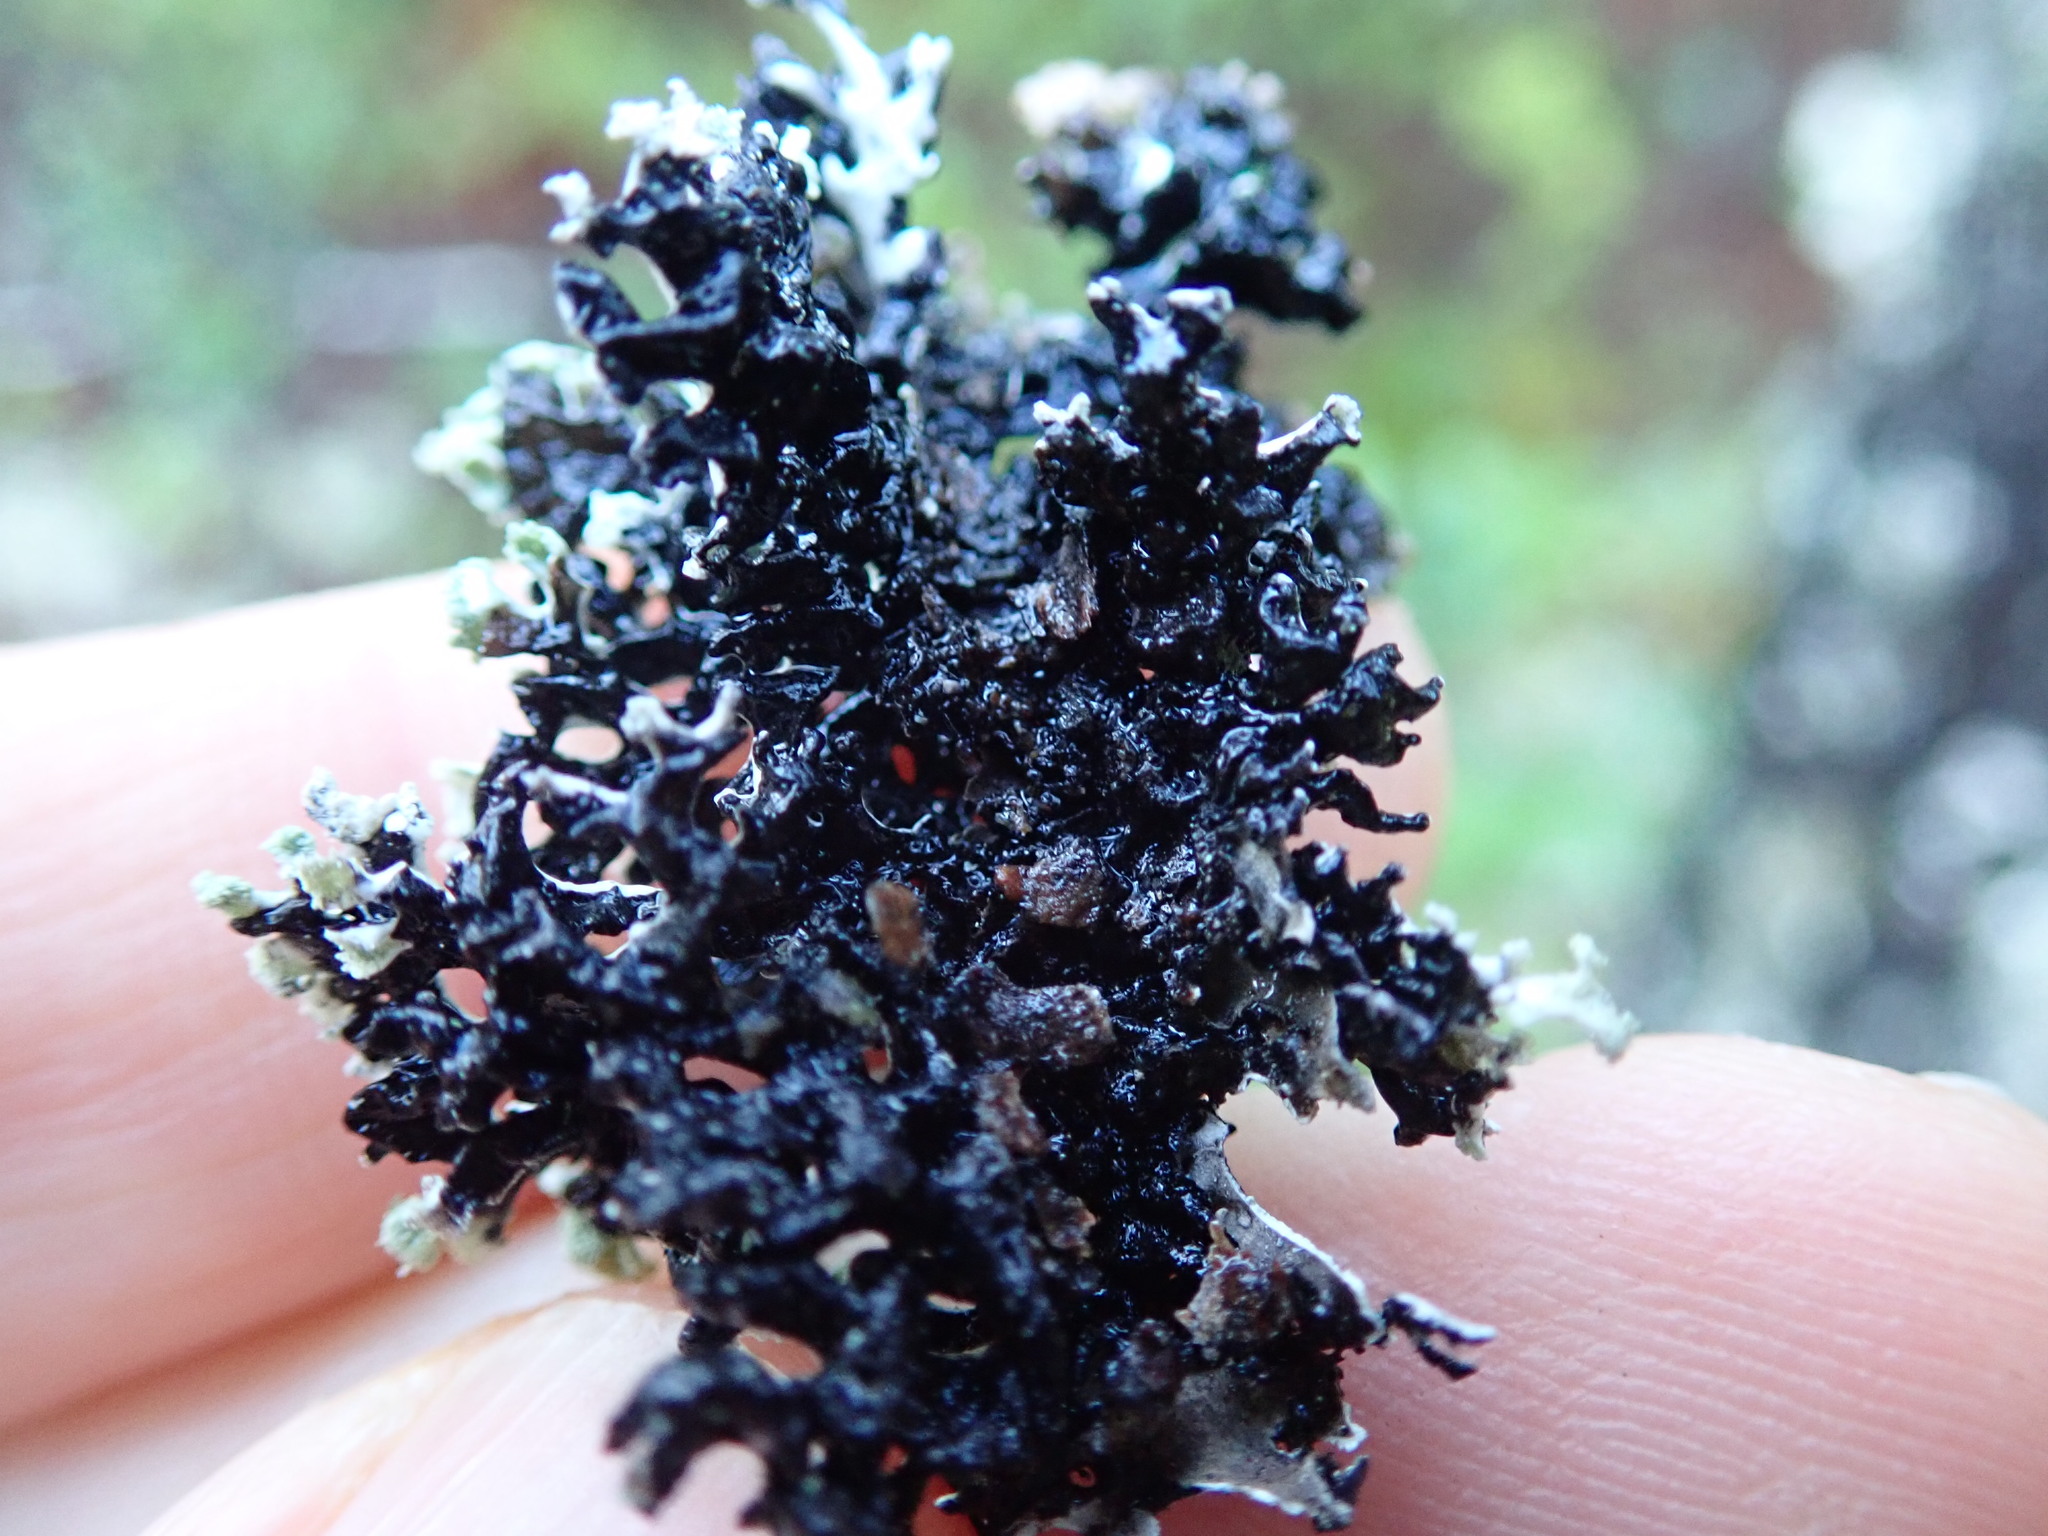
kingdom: Fungi
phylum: Ascomycota
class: Lecanoromycetes
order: Lecanorales
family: Parmeliaceae
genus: Hypogymnia
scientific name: Hypogymnia physodes
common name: Dark crottle
